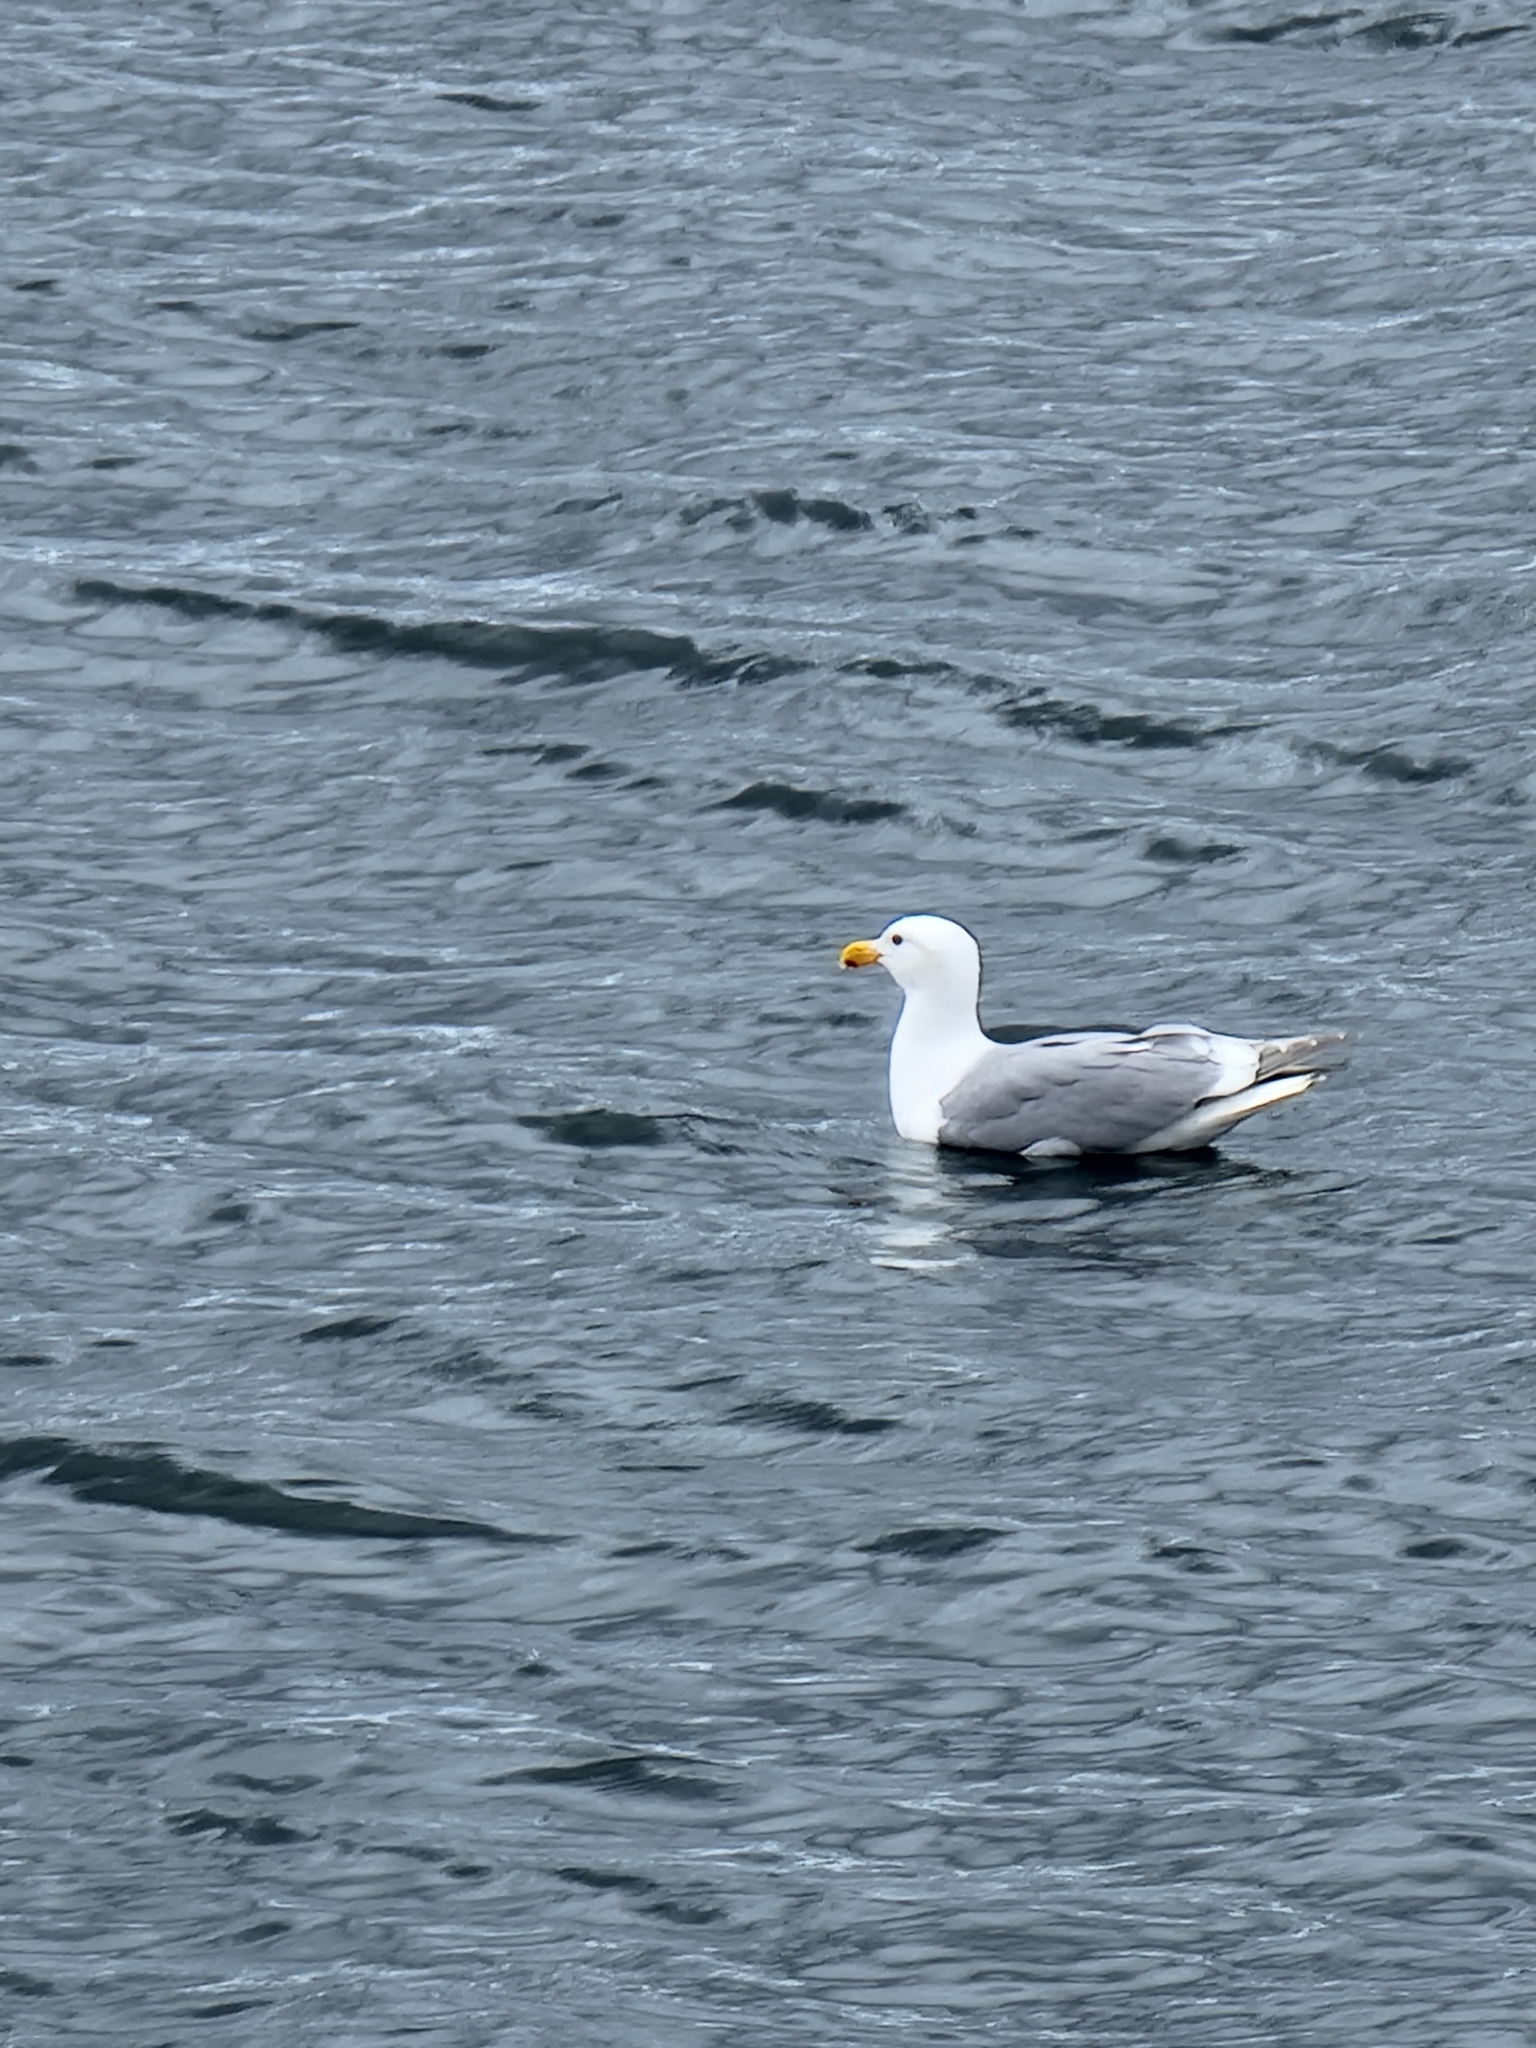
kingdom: Animalia
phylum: Chordata
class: Aves
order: Charadriiformes
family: Laridae
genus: Larus
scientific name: Larus
